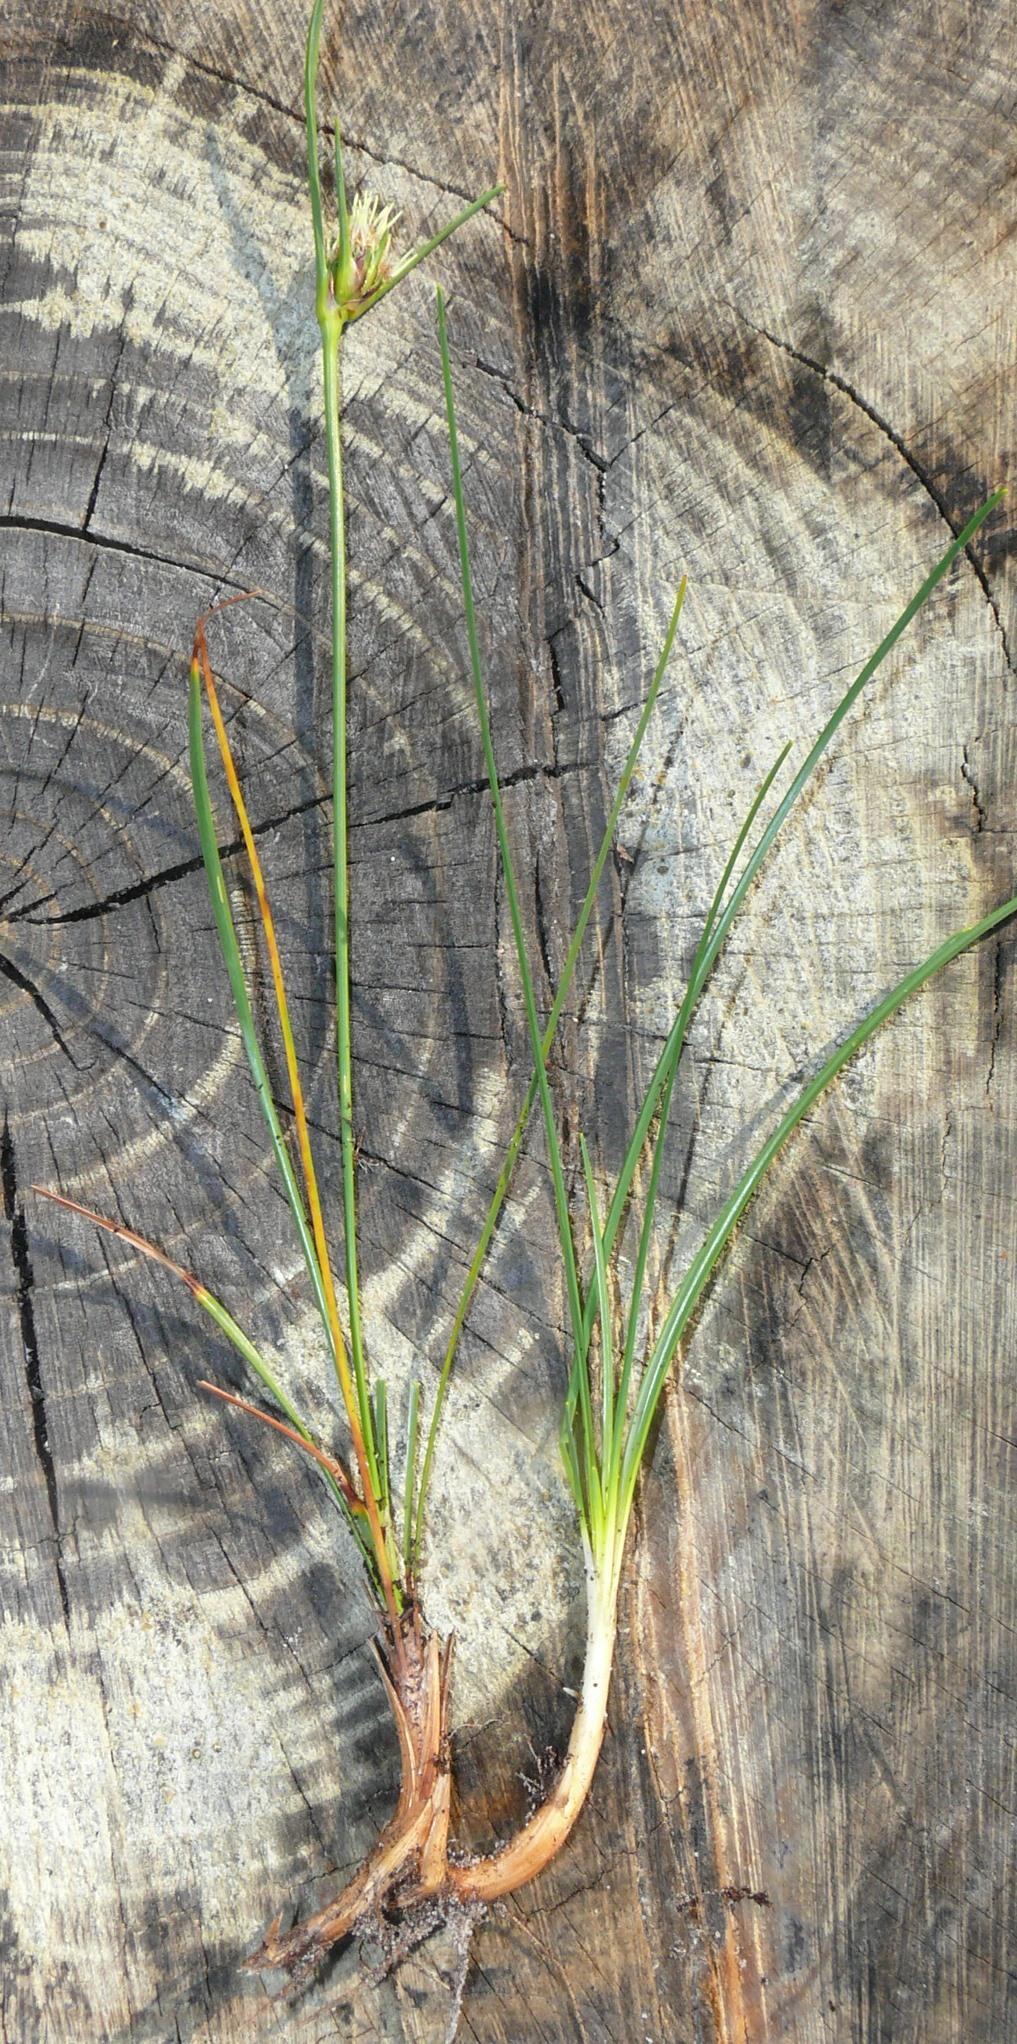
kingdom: Plantae
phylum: Tracheophyta
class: Liliopsida
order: Poales
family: Cyperaceae
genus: Ficinia
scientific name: Ficinia pallens
